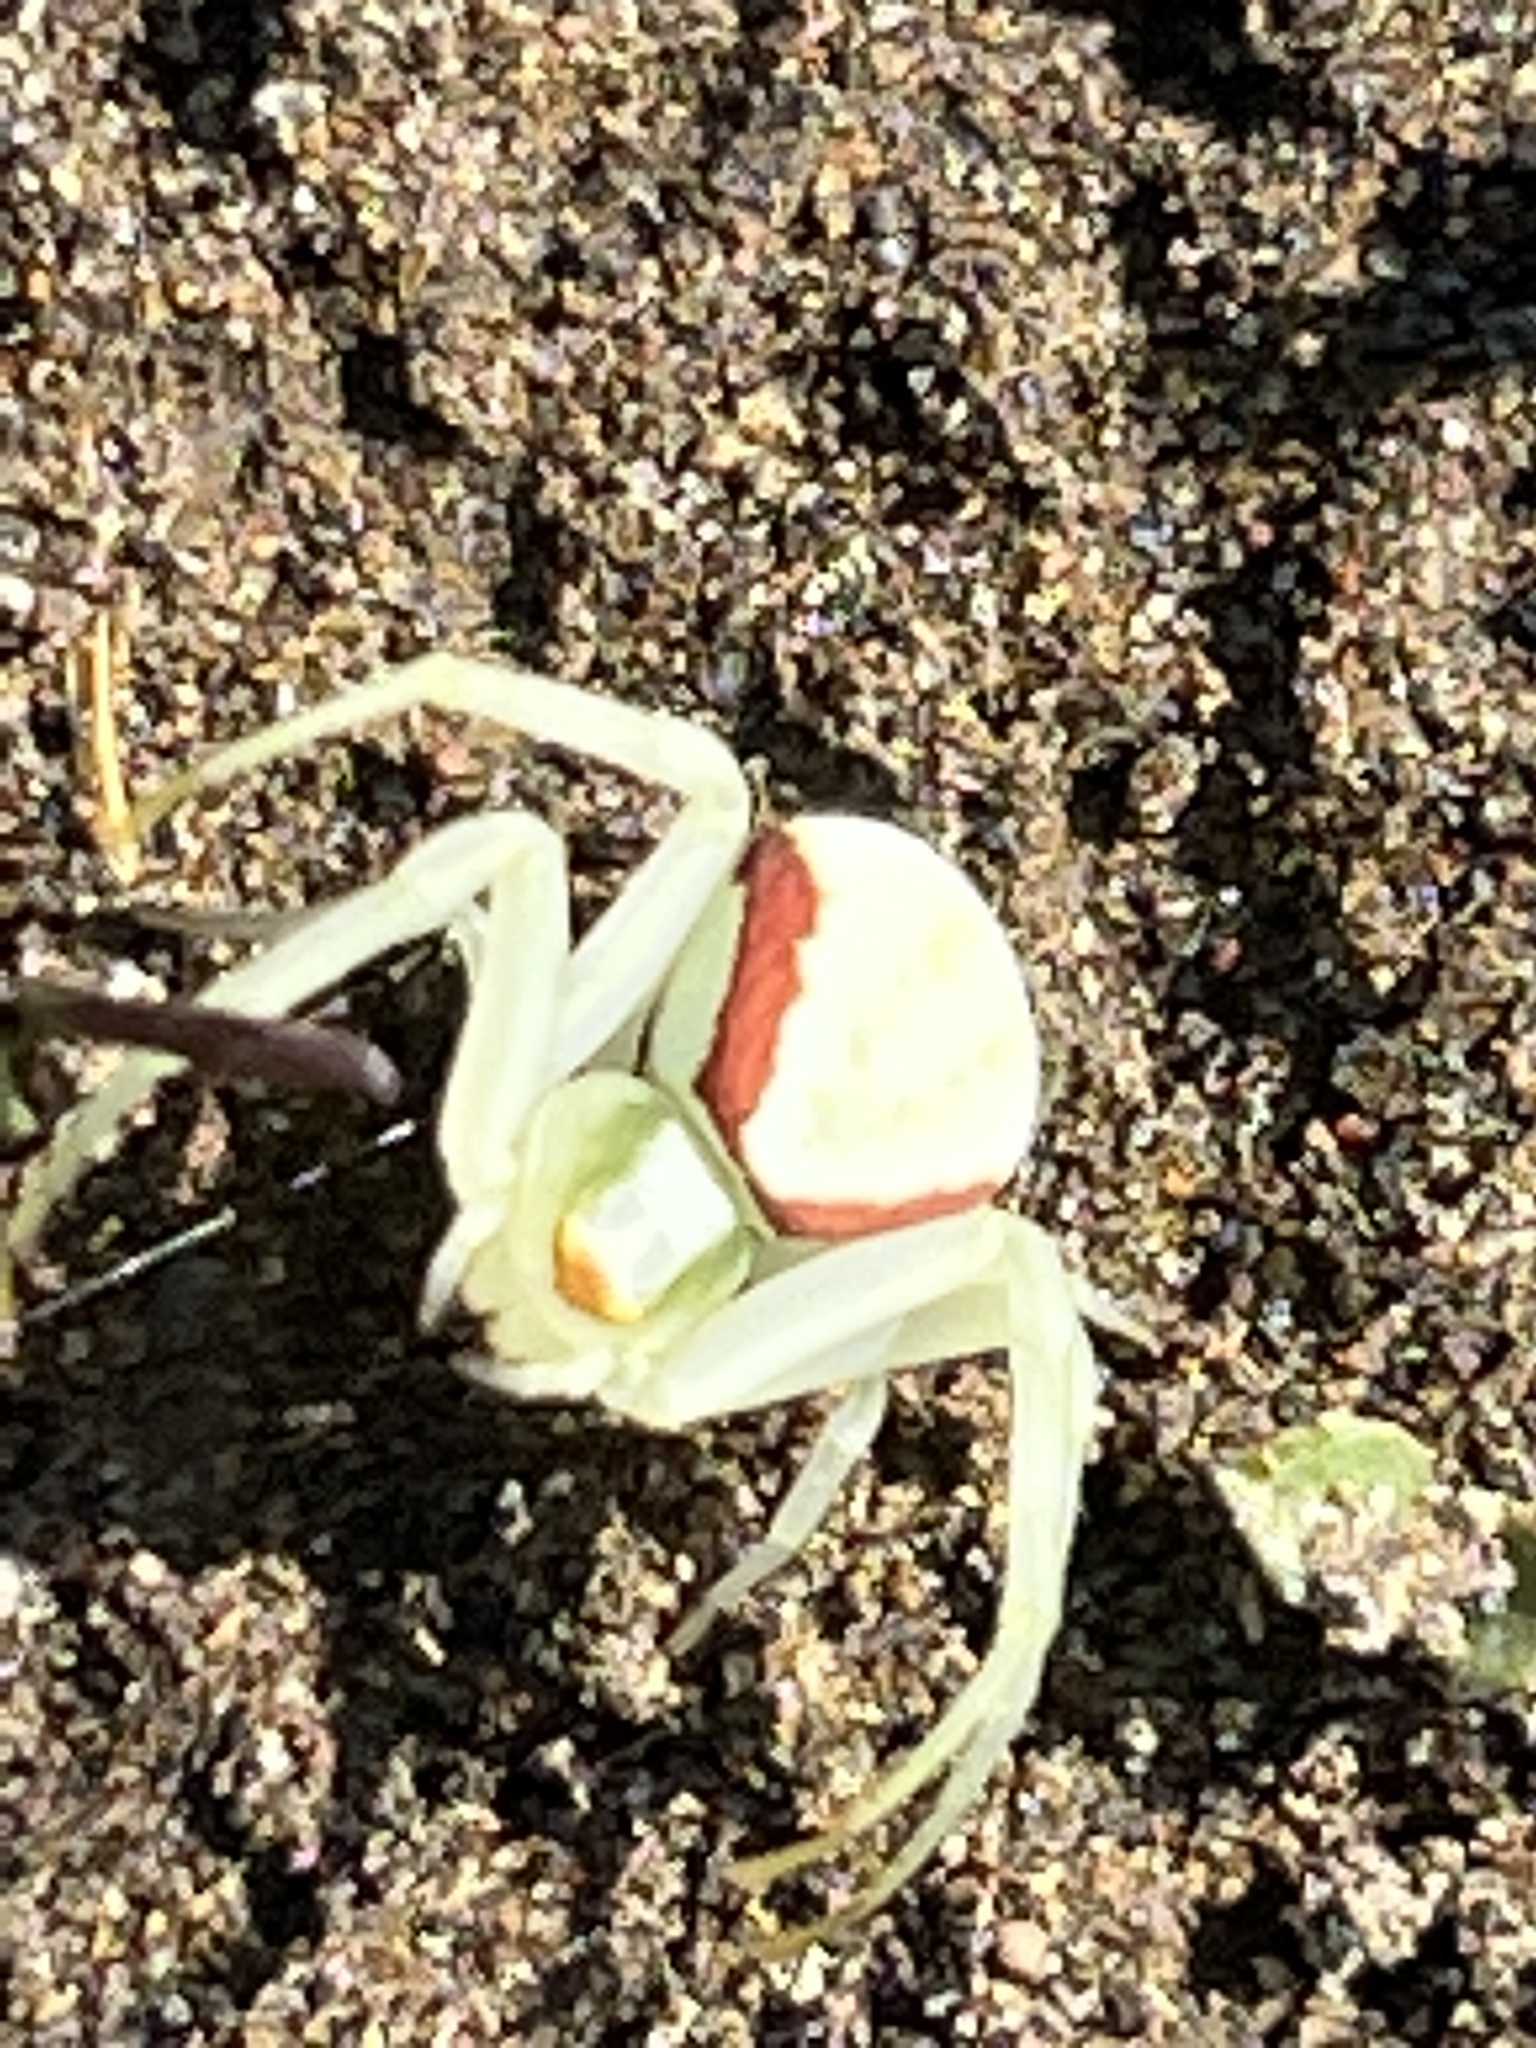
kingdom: Animalia
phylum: Arthropoda
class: Arachnida
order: Araneae
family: Thomisidae
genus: Misumena
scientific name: Misumena vatia
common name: Goldenrod crab spider
